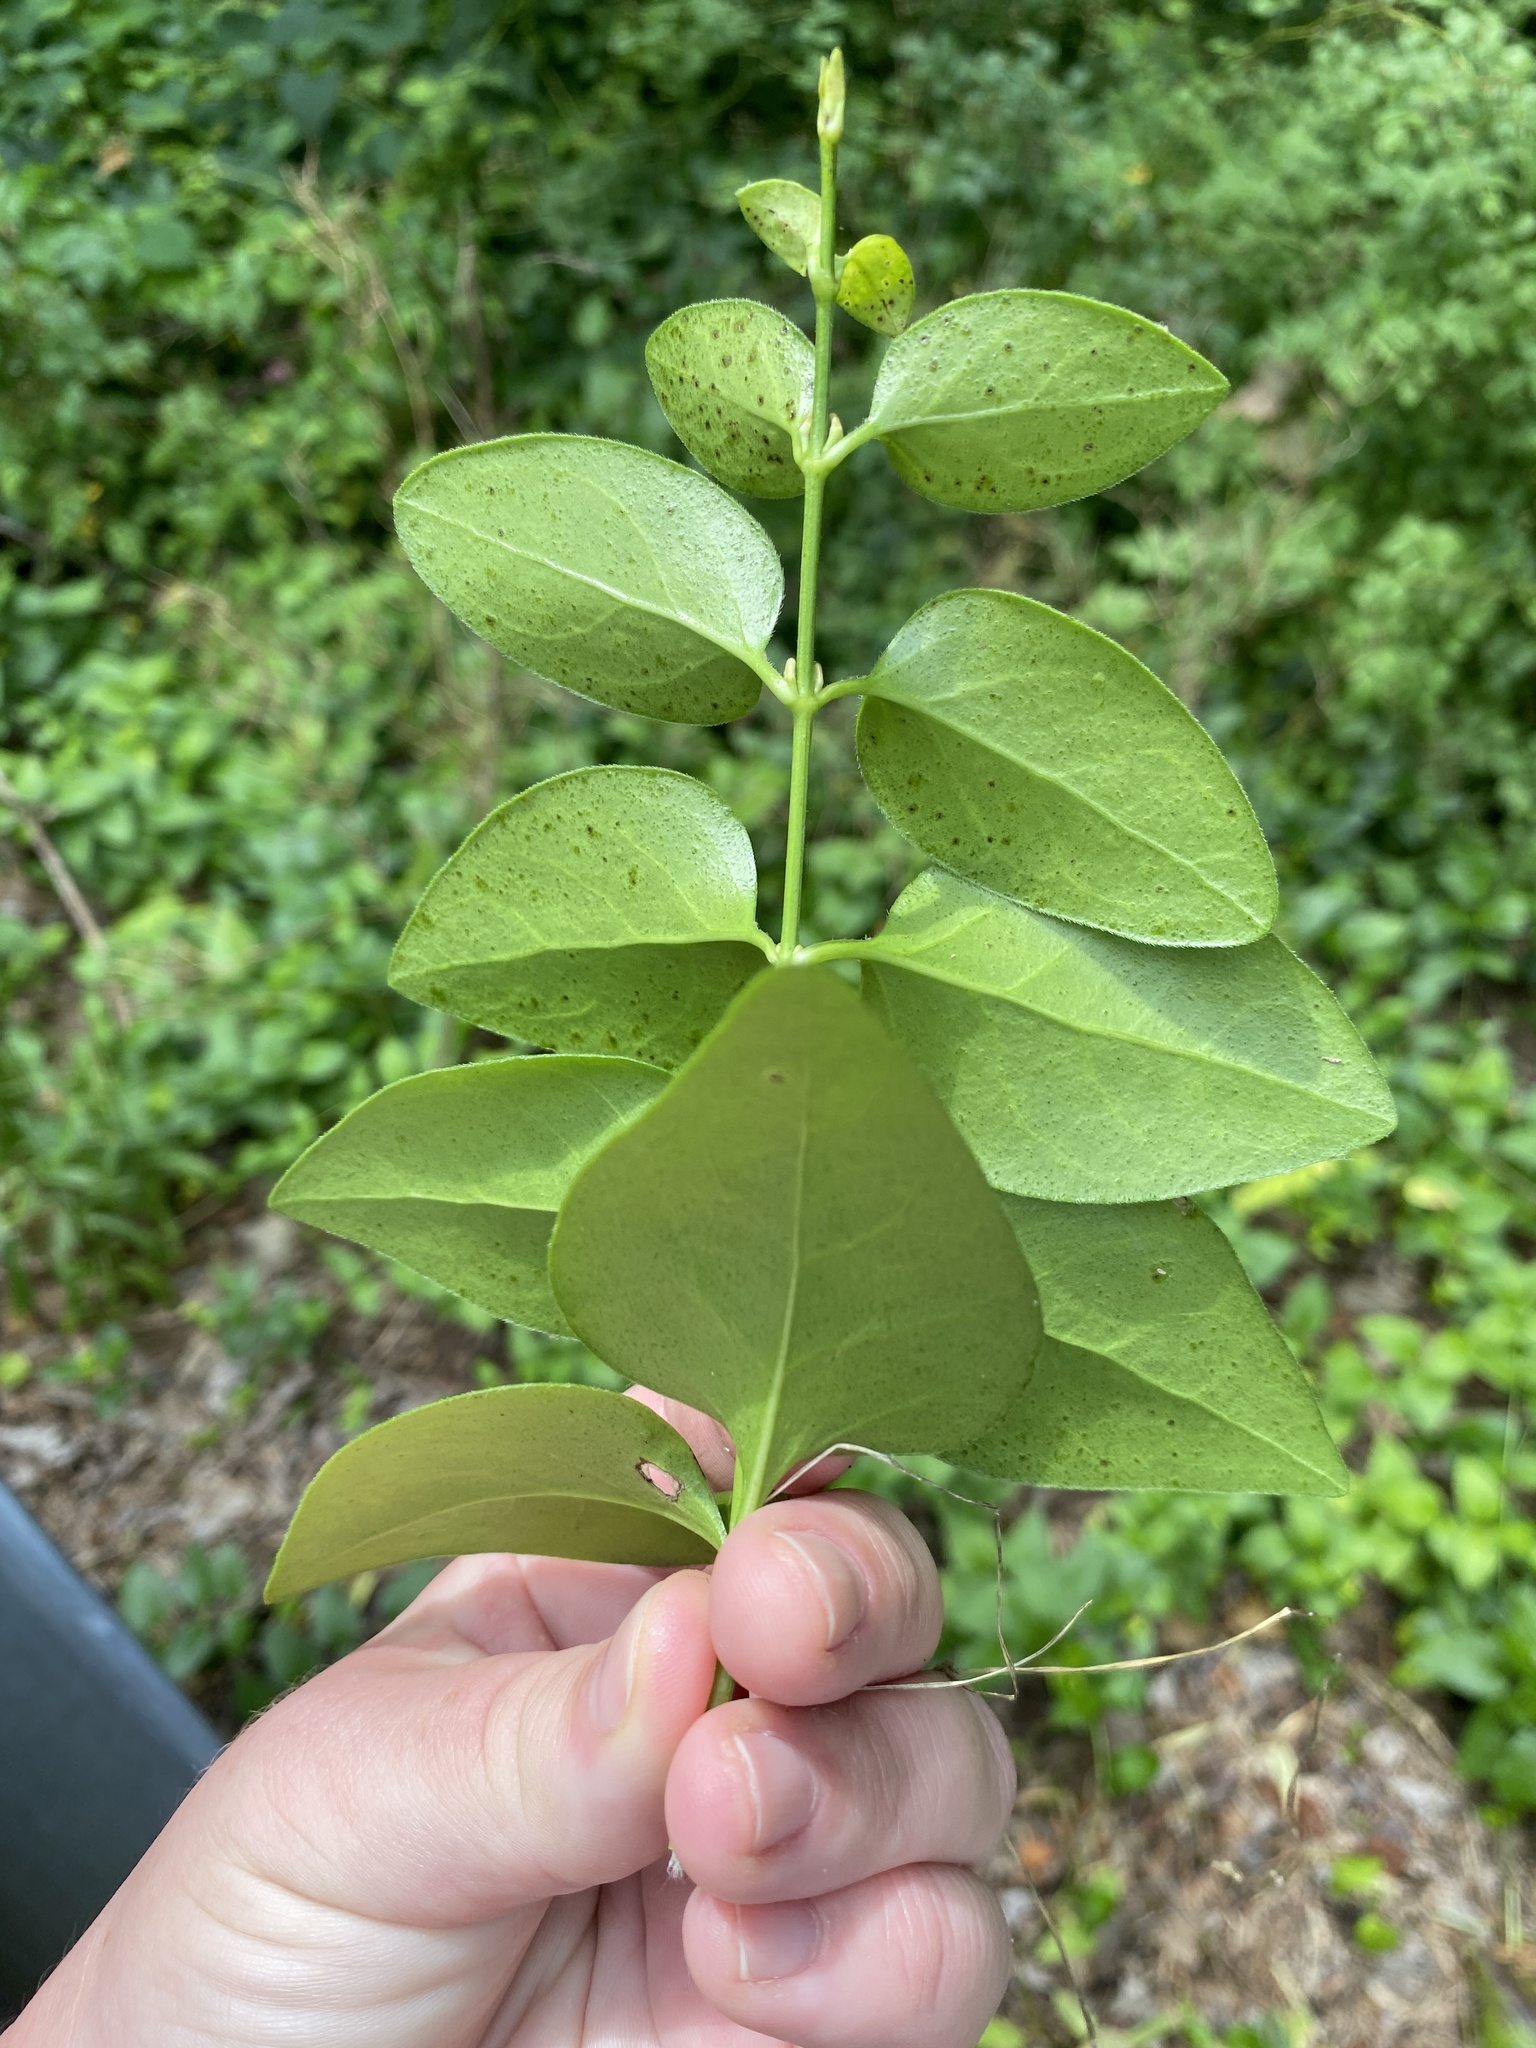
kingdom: Plantae
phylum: Tracheophyta
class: Magnoliopsida
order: Gentianales
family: Apocynaceae
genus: Vinca
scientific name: Vinca major
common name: Greater periwinkle
